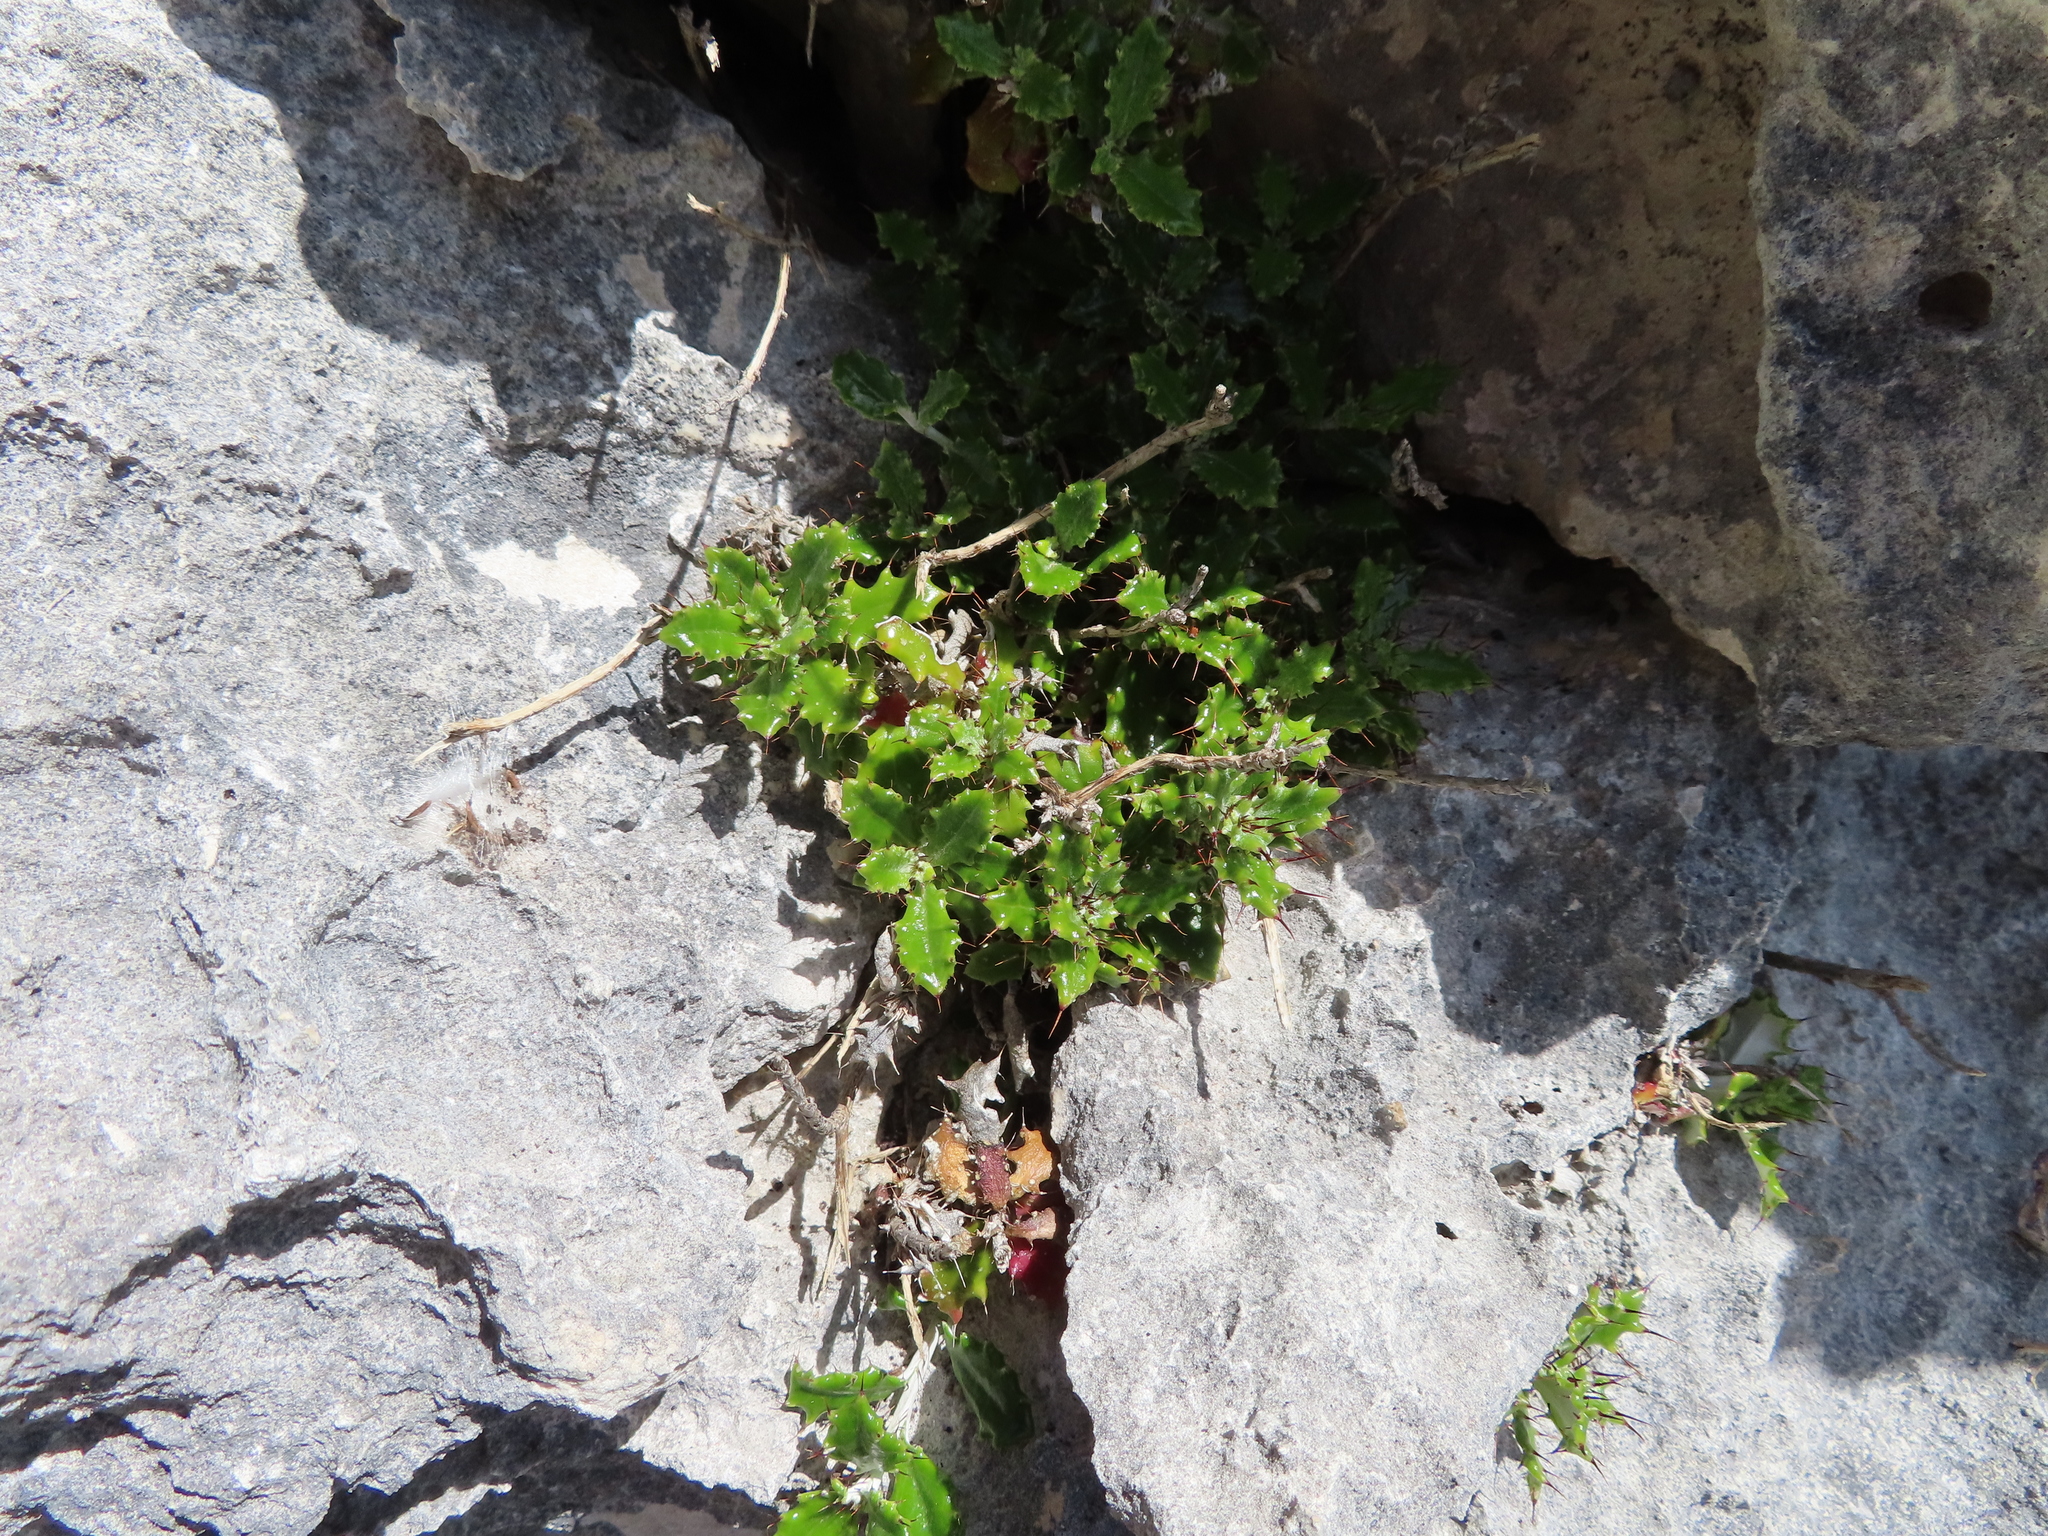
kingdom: Plantae
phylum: Tracheophyta
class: Magnoliopsida
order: Asterales
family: Asteraceae
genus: Berkheya
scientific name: Berkheya coriacea
